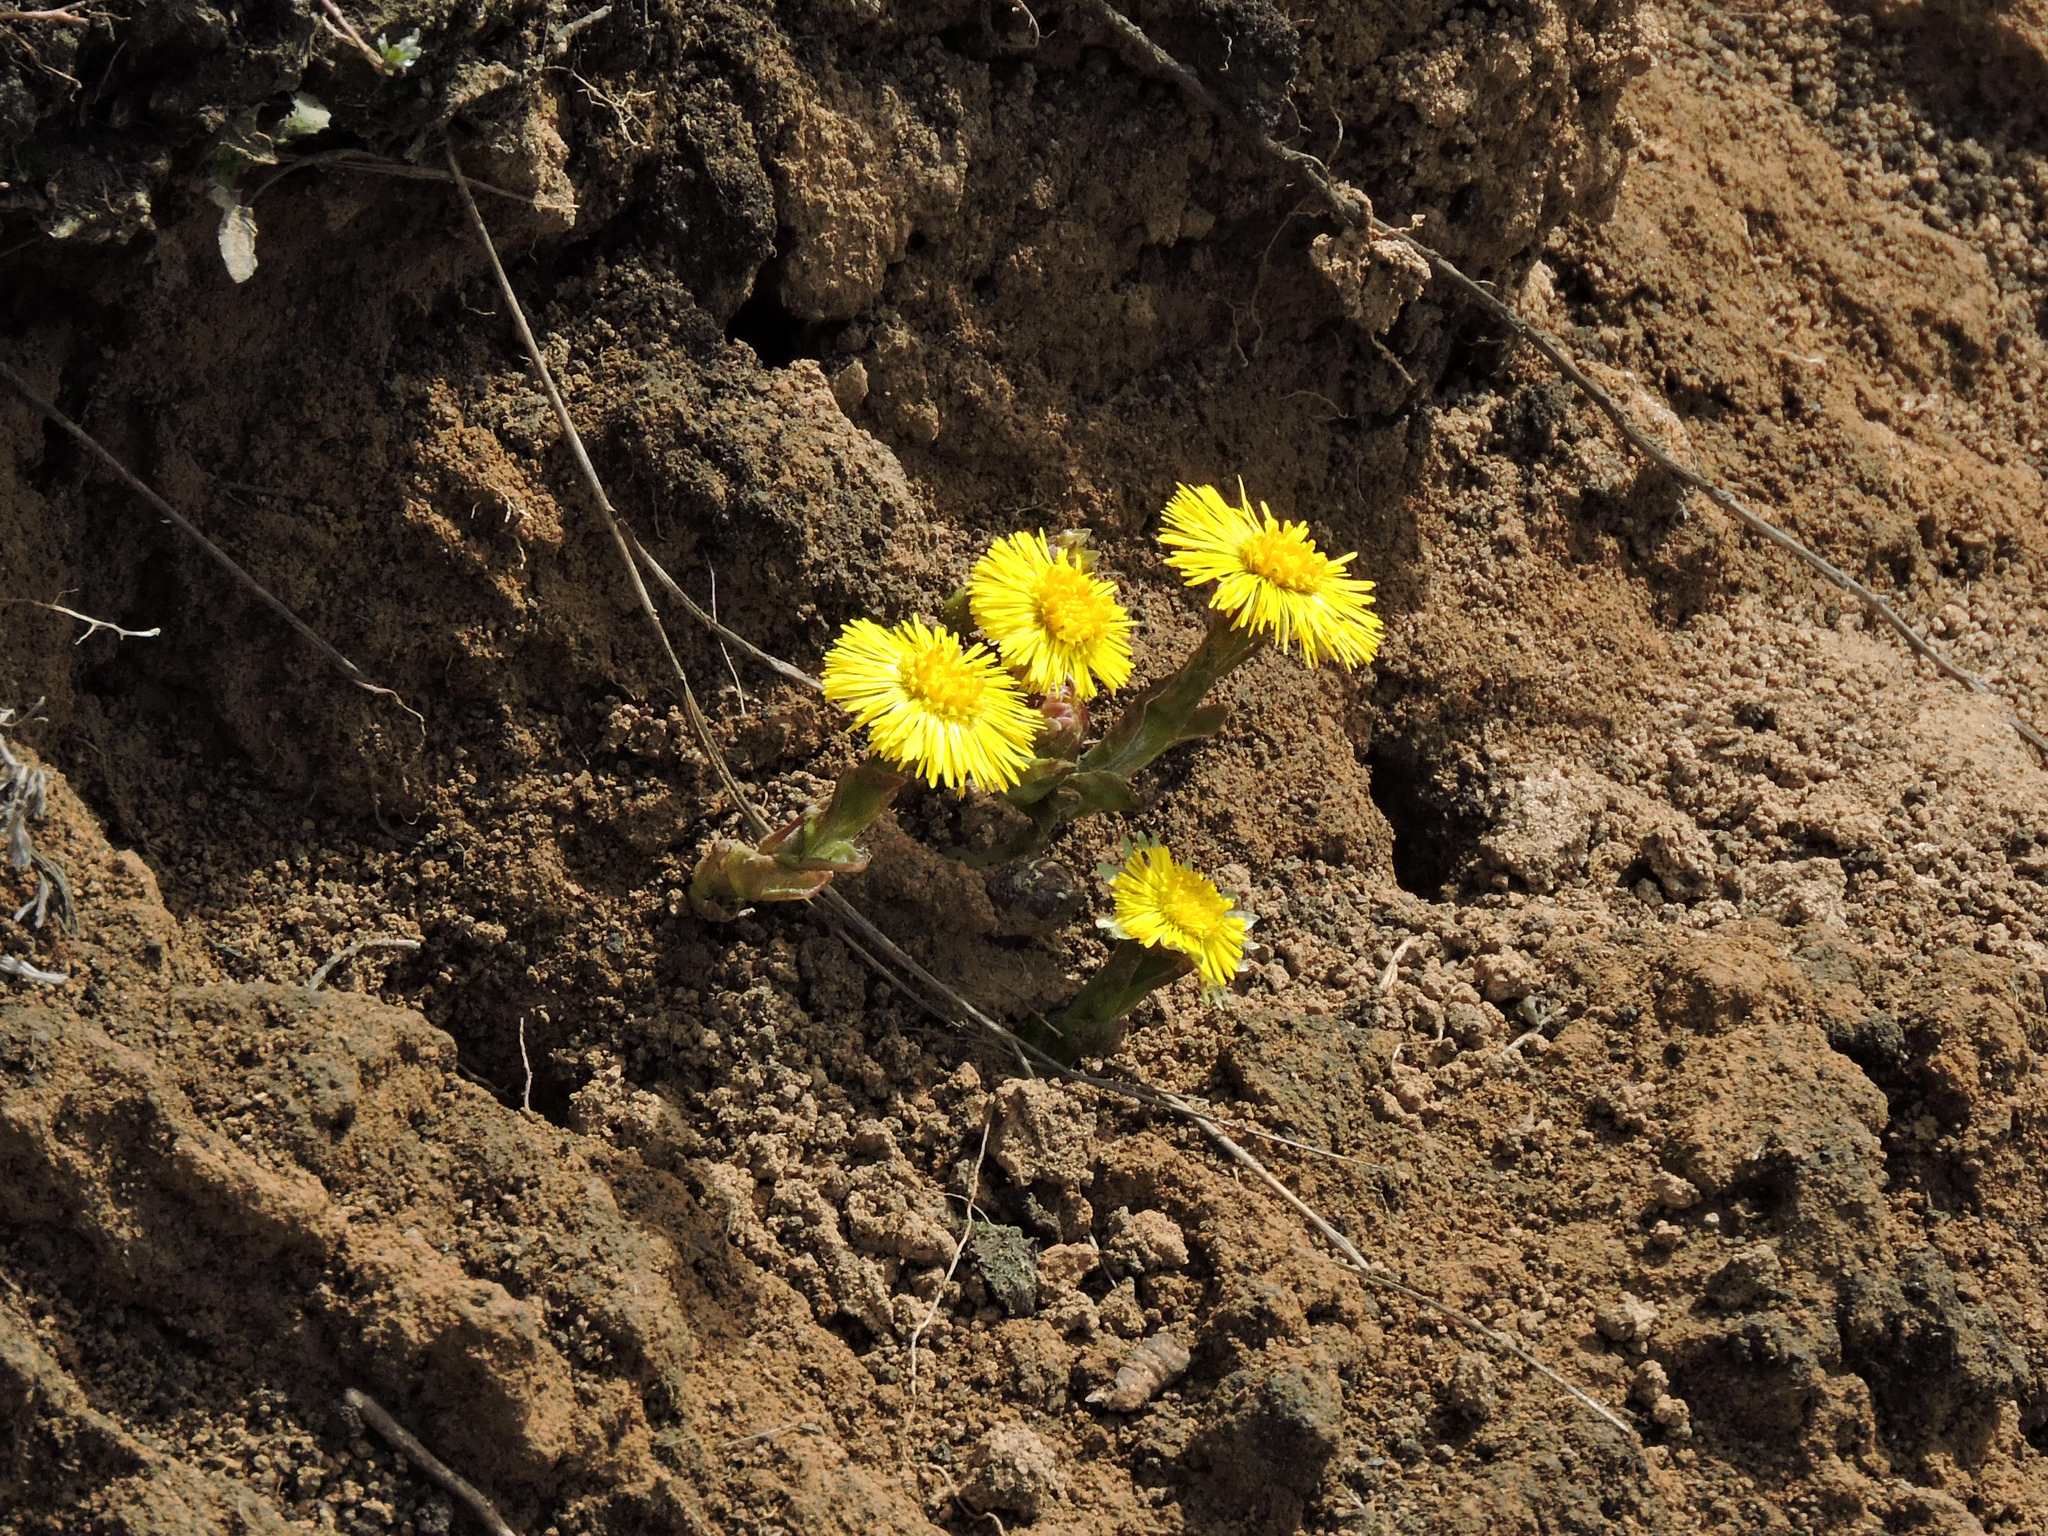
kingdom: Plantae
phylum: Tracheophyta
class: Magnoliopsida
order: Asterales
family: Asteraceae
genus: Tussilago
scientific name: Tussilago farfara
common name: Coltsfoot
